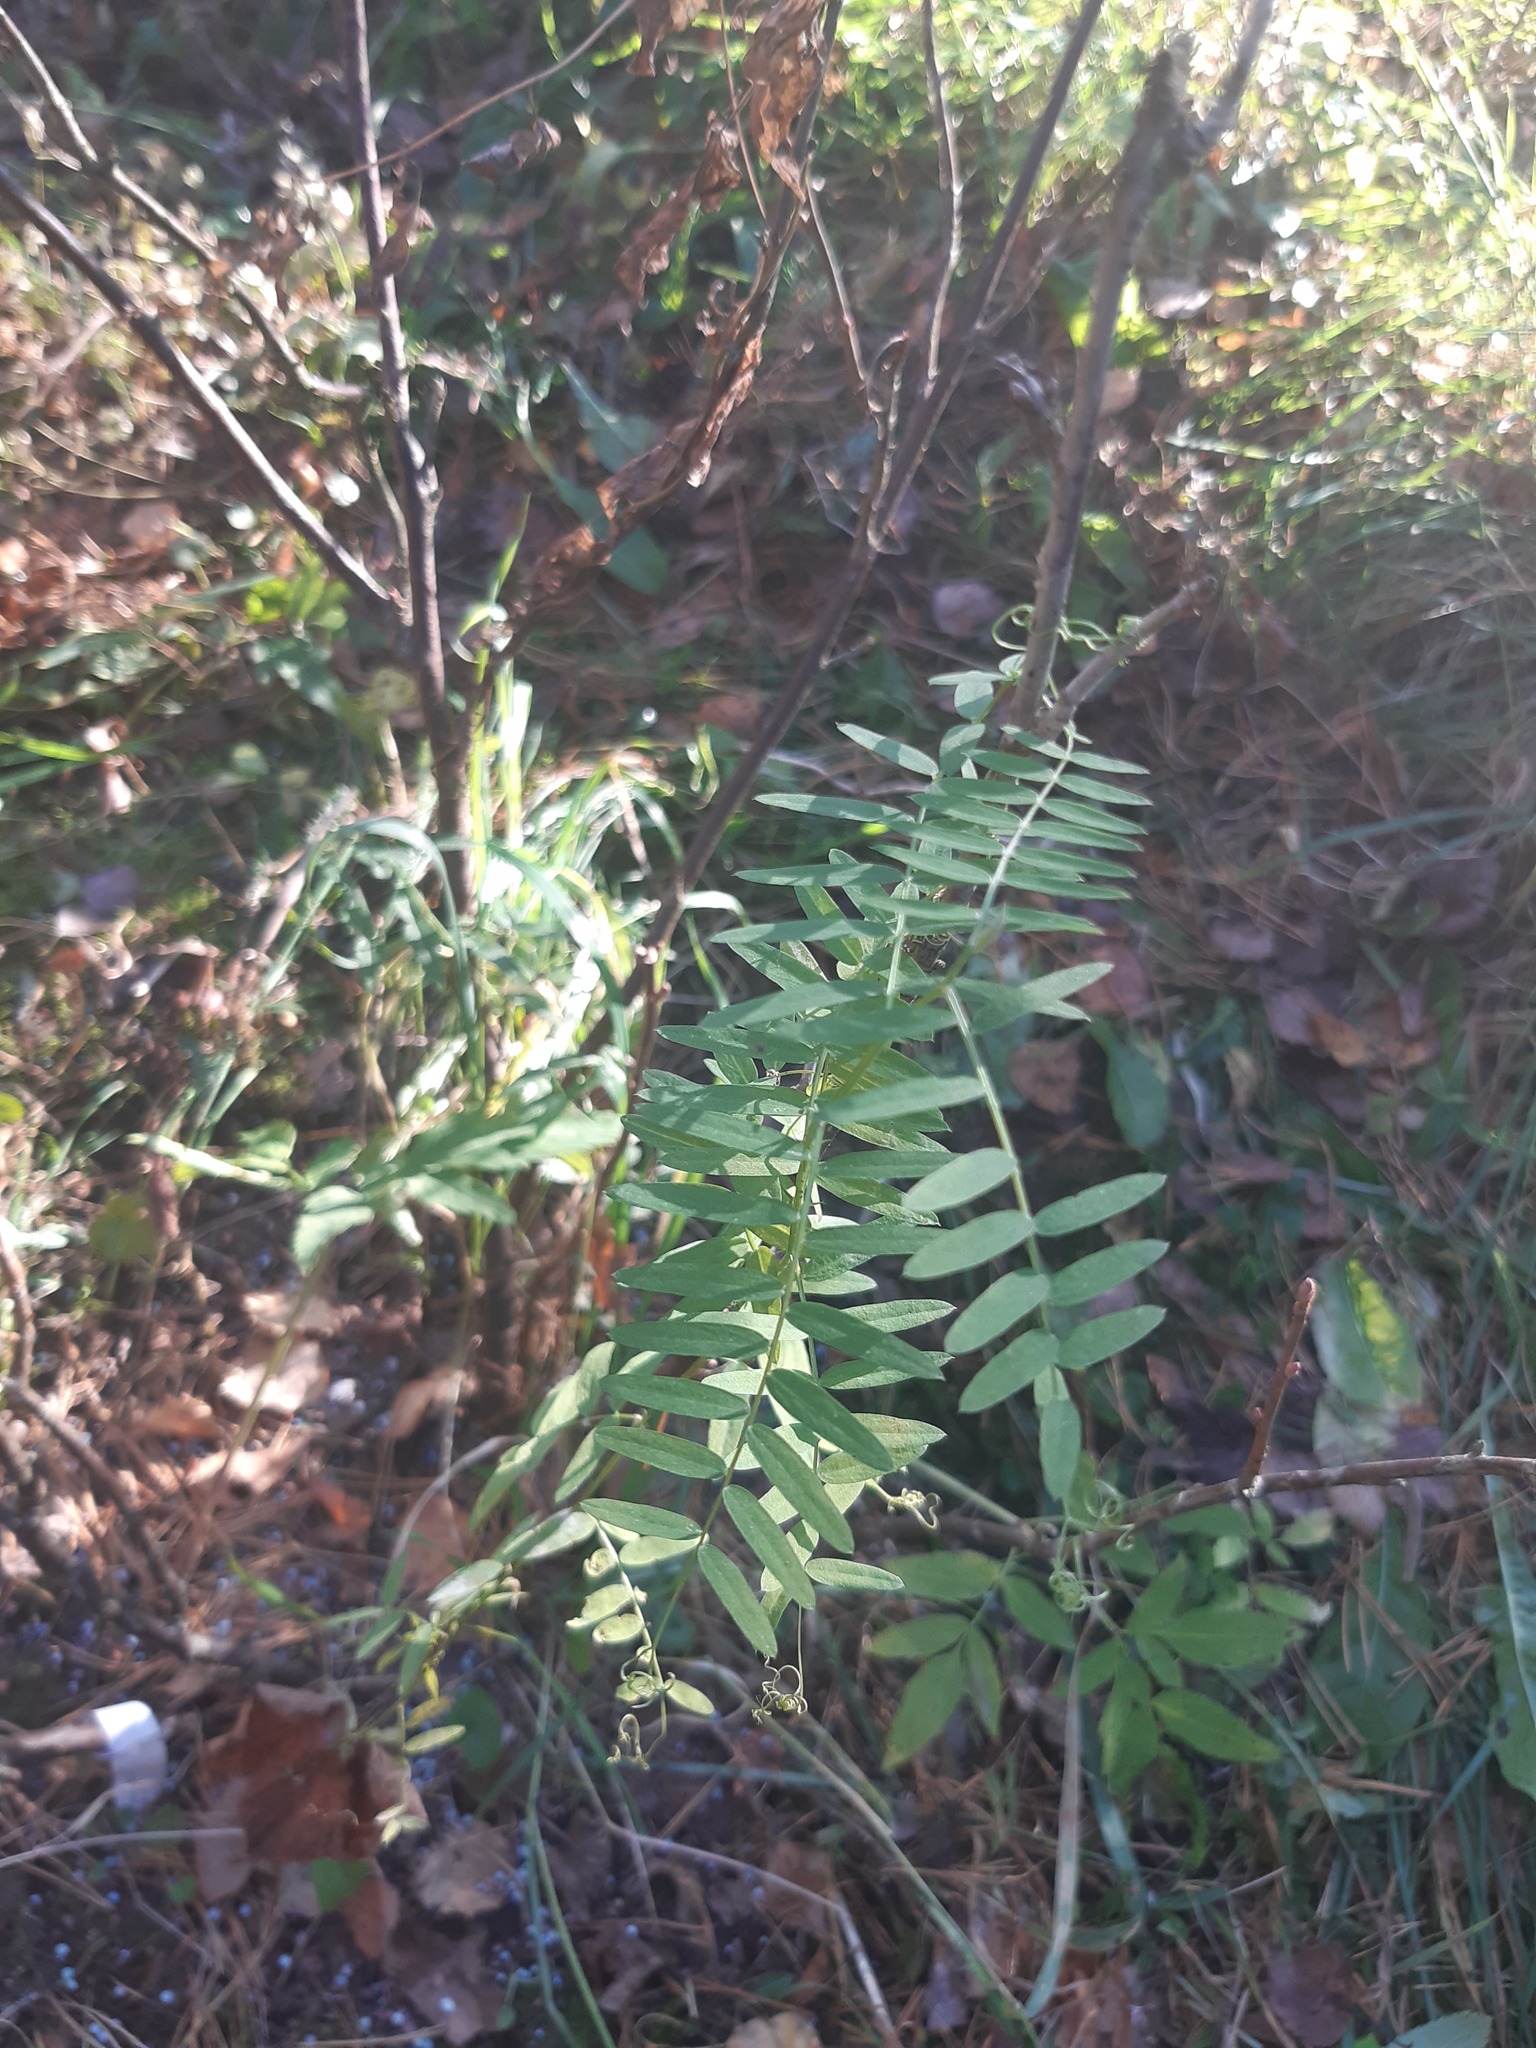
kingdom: Plantae
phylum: Tracheophyta
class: Magnoliopsida
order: Fabales
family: Fabaceae
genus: Vicia
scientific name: Vicia cracca
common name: Bird vetch
